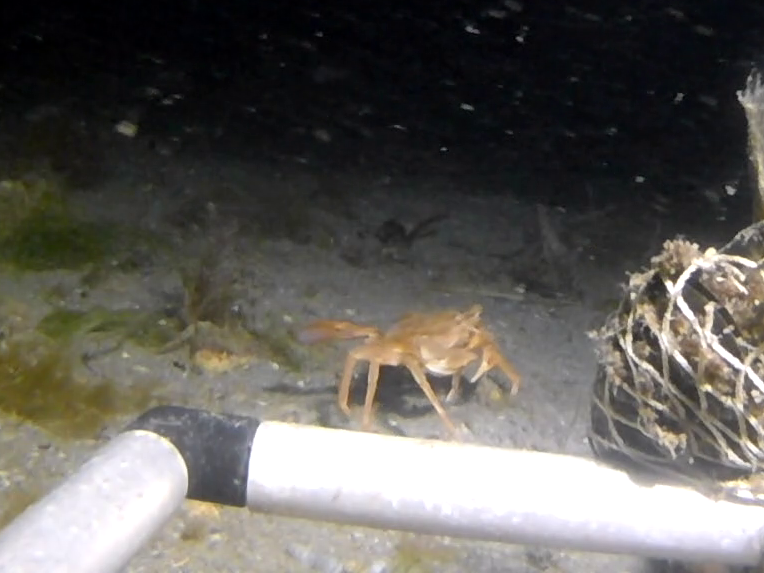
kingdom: Animalia
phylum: Arthropoda
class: Malacostraca
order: Decapoda
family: Polybiidae
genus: Liocarcinus
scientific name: Liocarcinus depurator
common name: Cleanser crab
